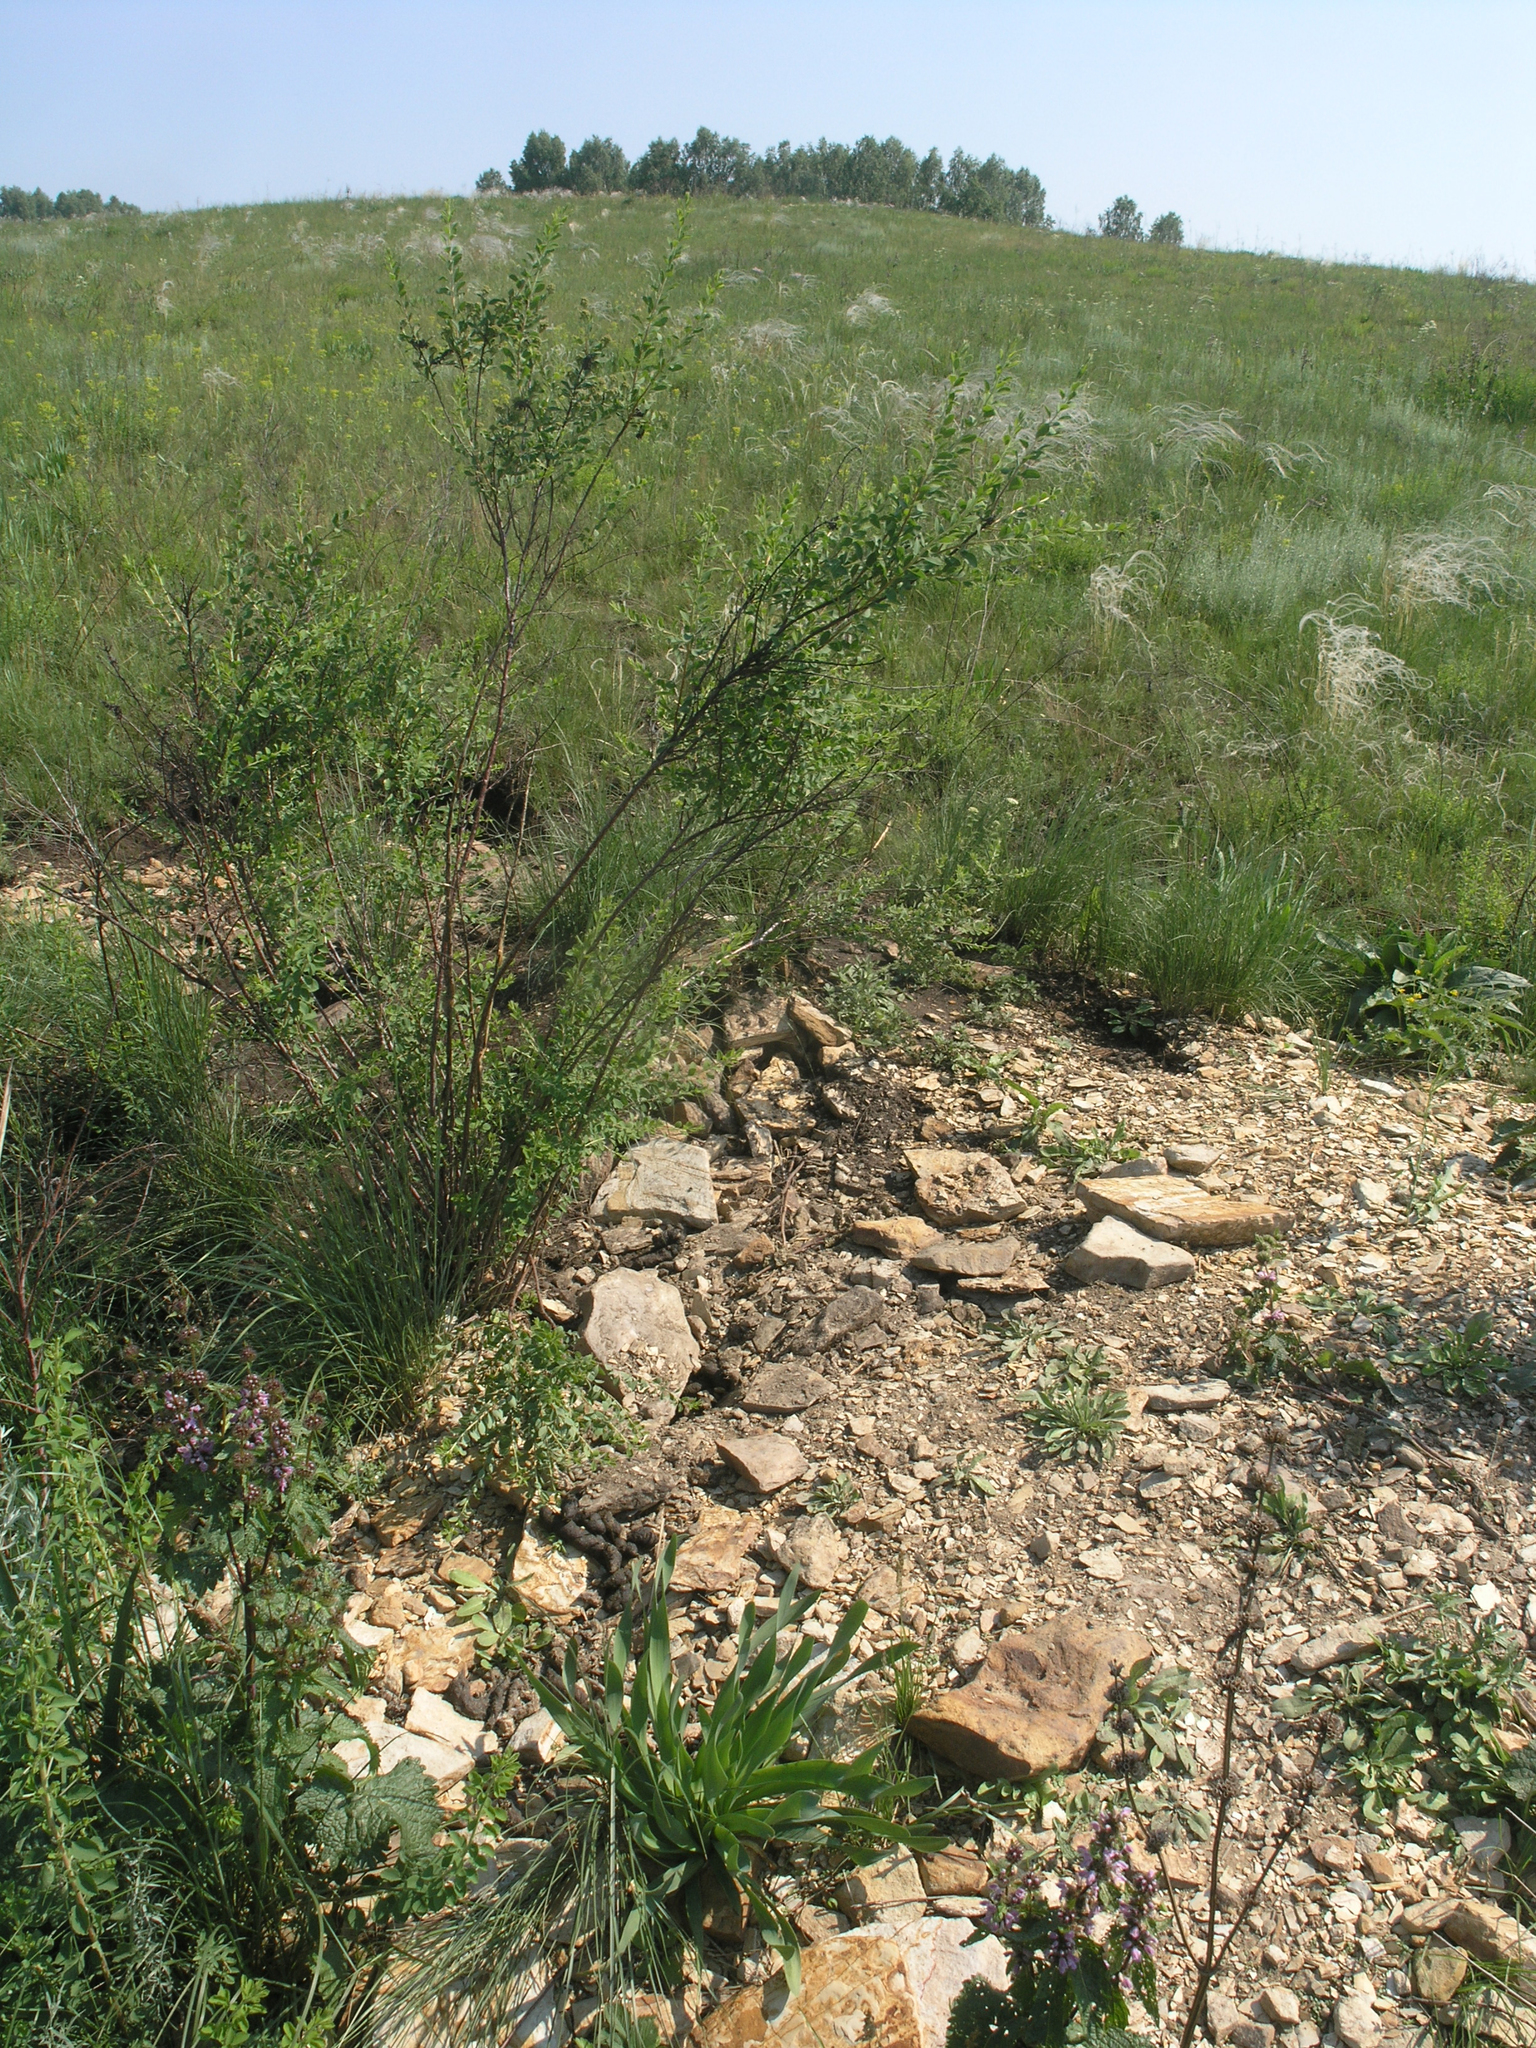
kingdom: Plantae
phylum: Tracheophyta
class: Liliopsida
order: Poales
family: Poaceae
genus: Stipa
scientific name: Stipa pennata
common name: European feather grass
